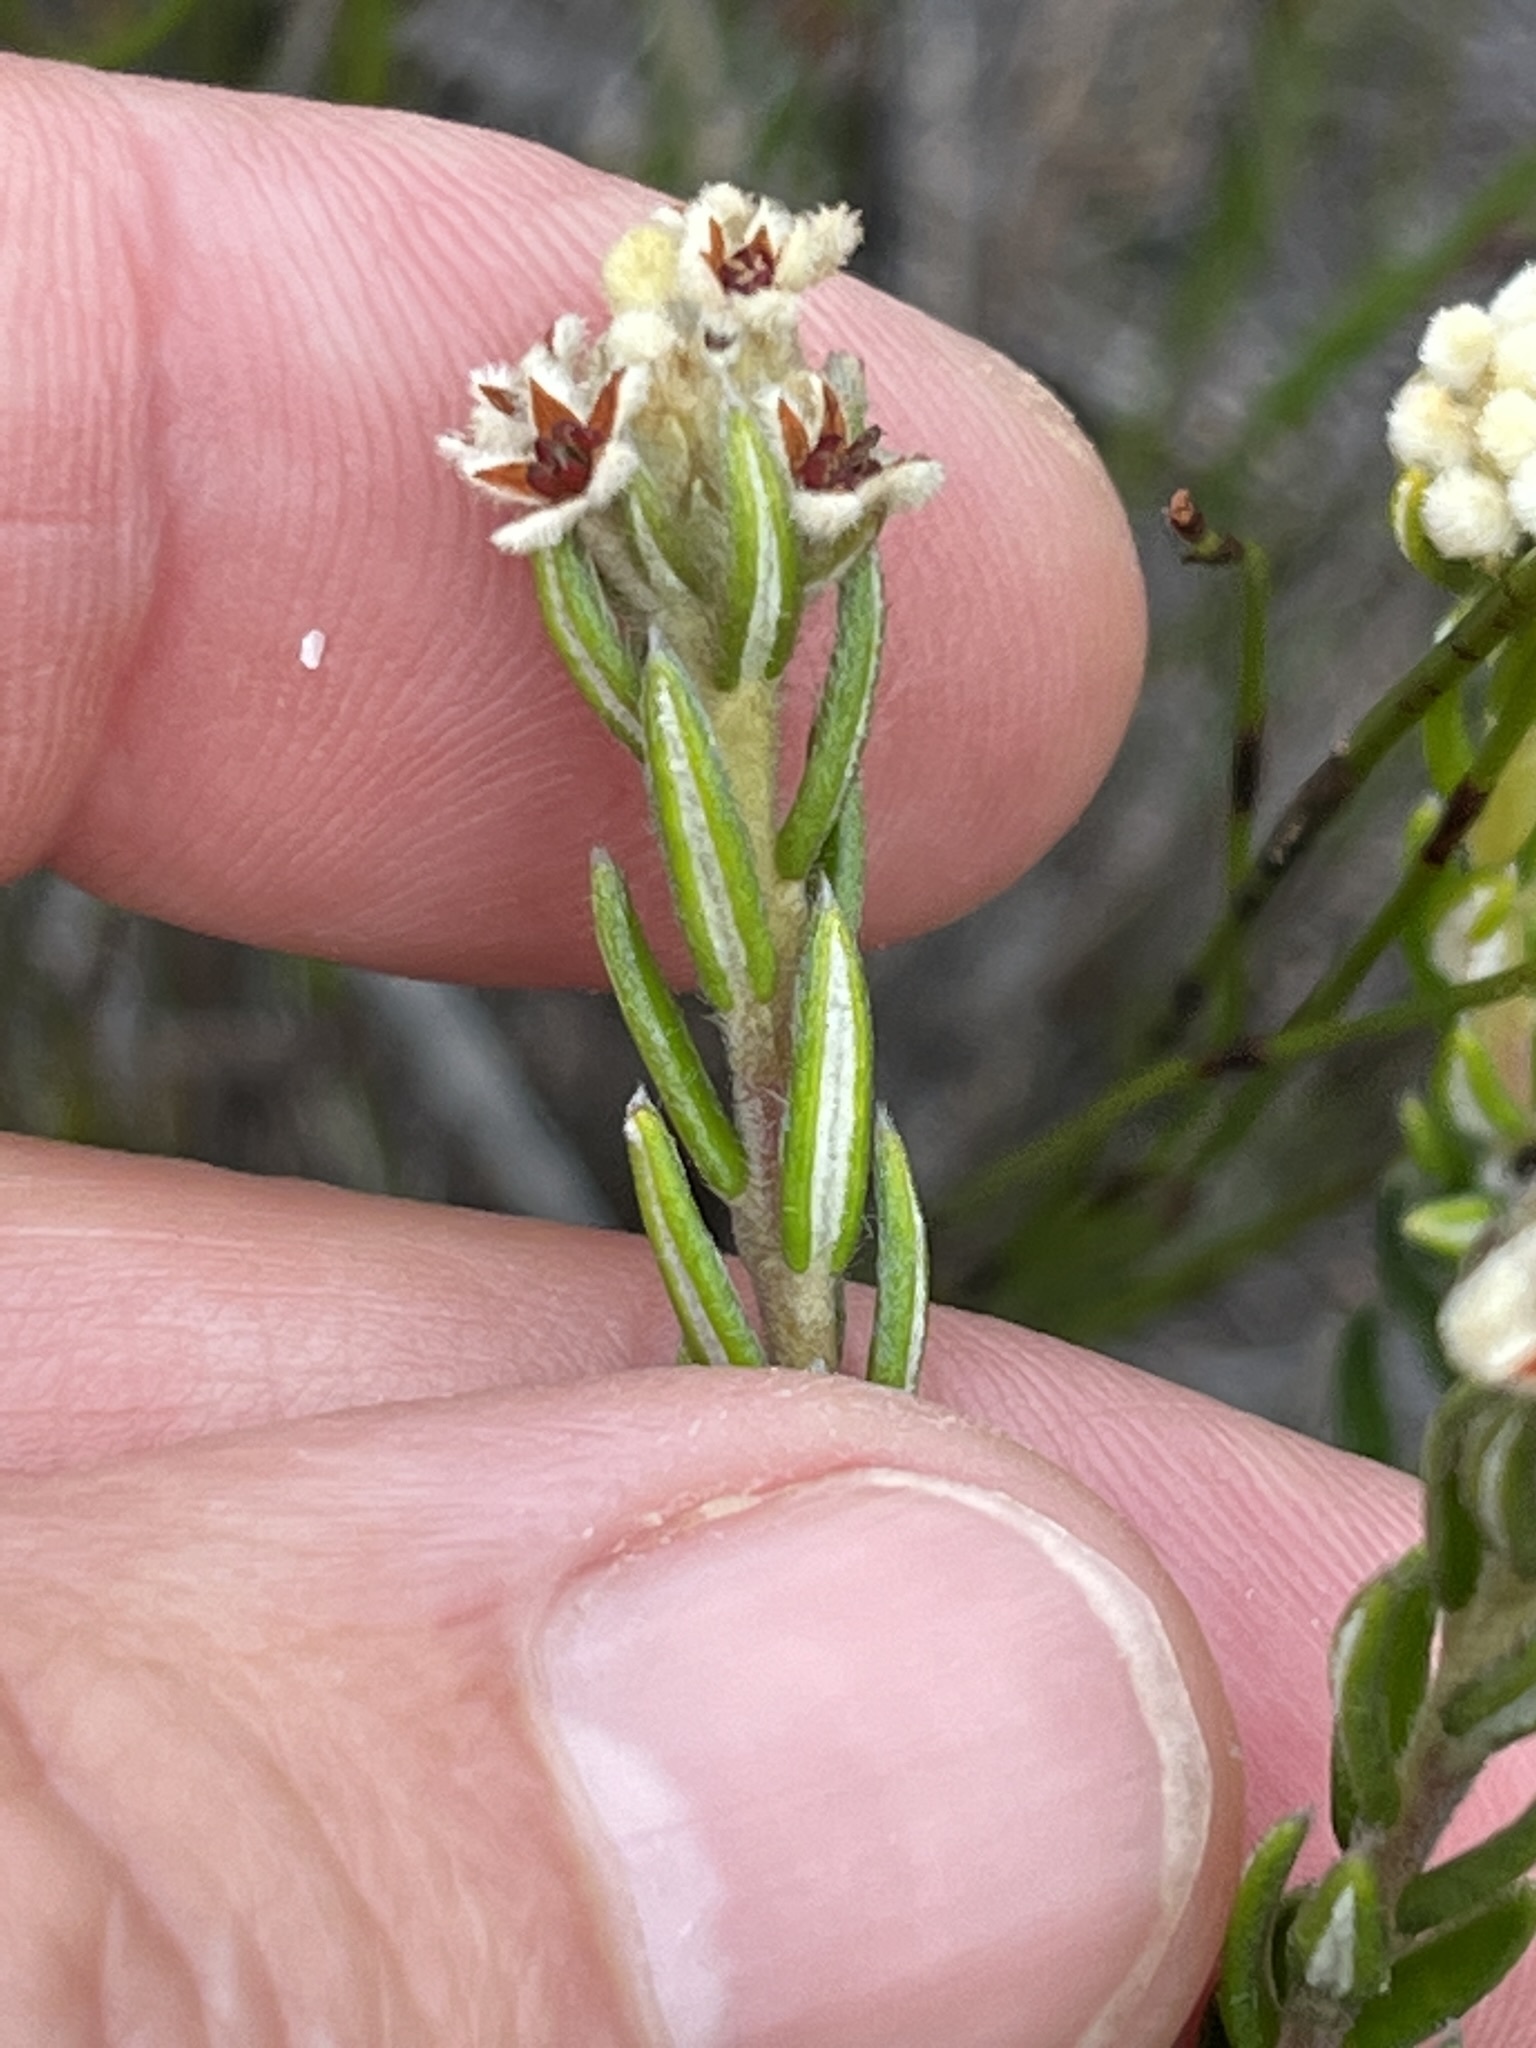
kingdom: Plantae
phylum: Tracheophyta
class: Magnoliopsida
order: Rosales
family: Rhamnaceae
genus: Phylica
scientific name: Phylica imberbis
